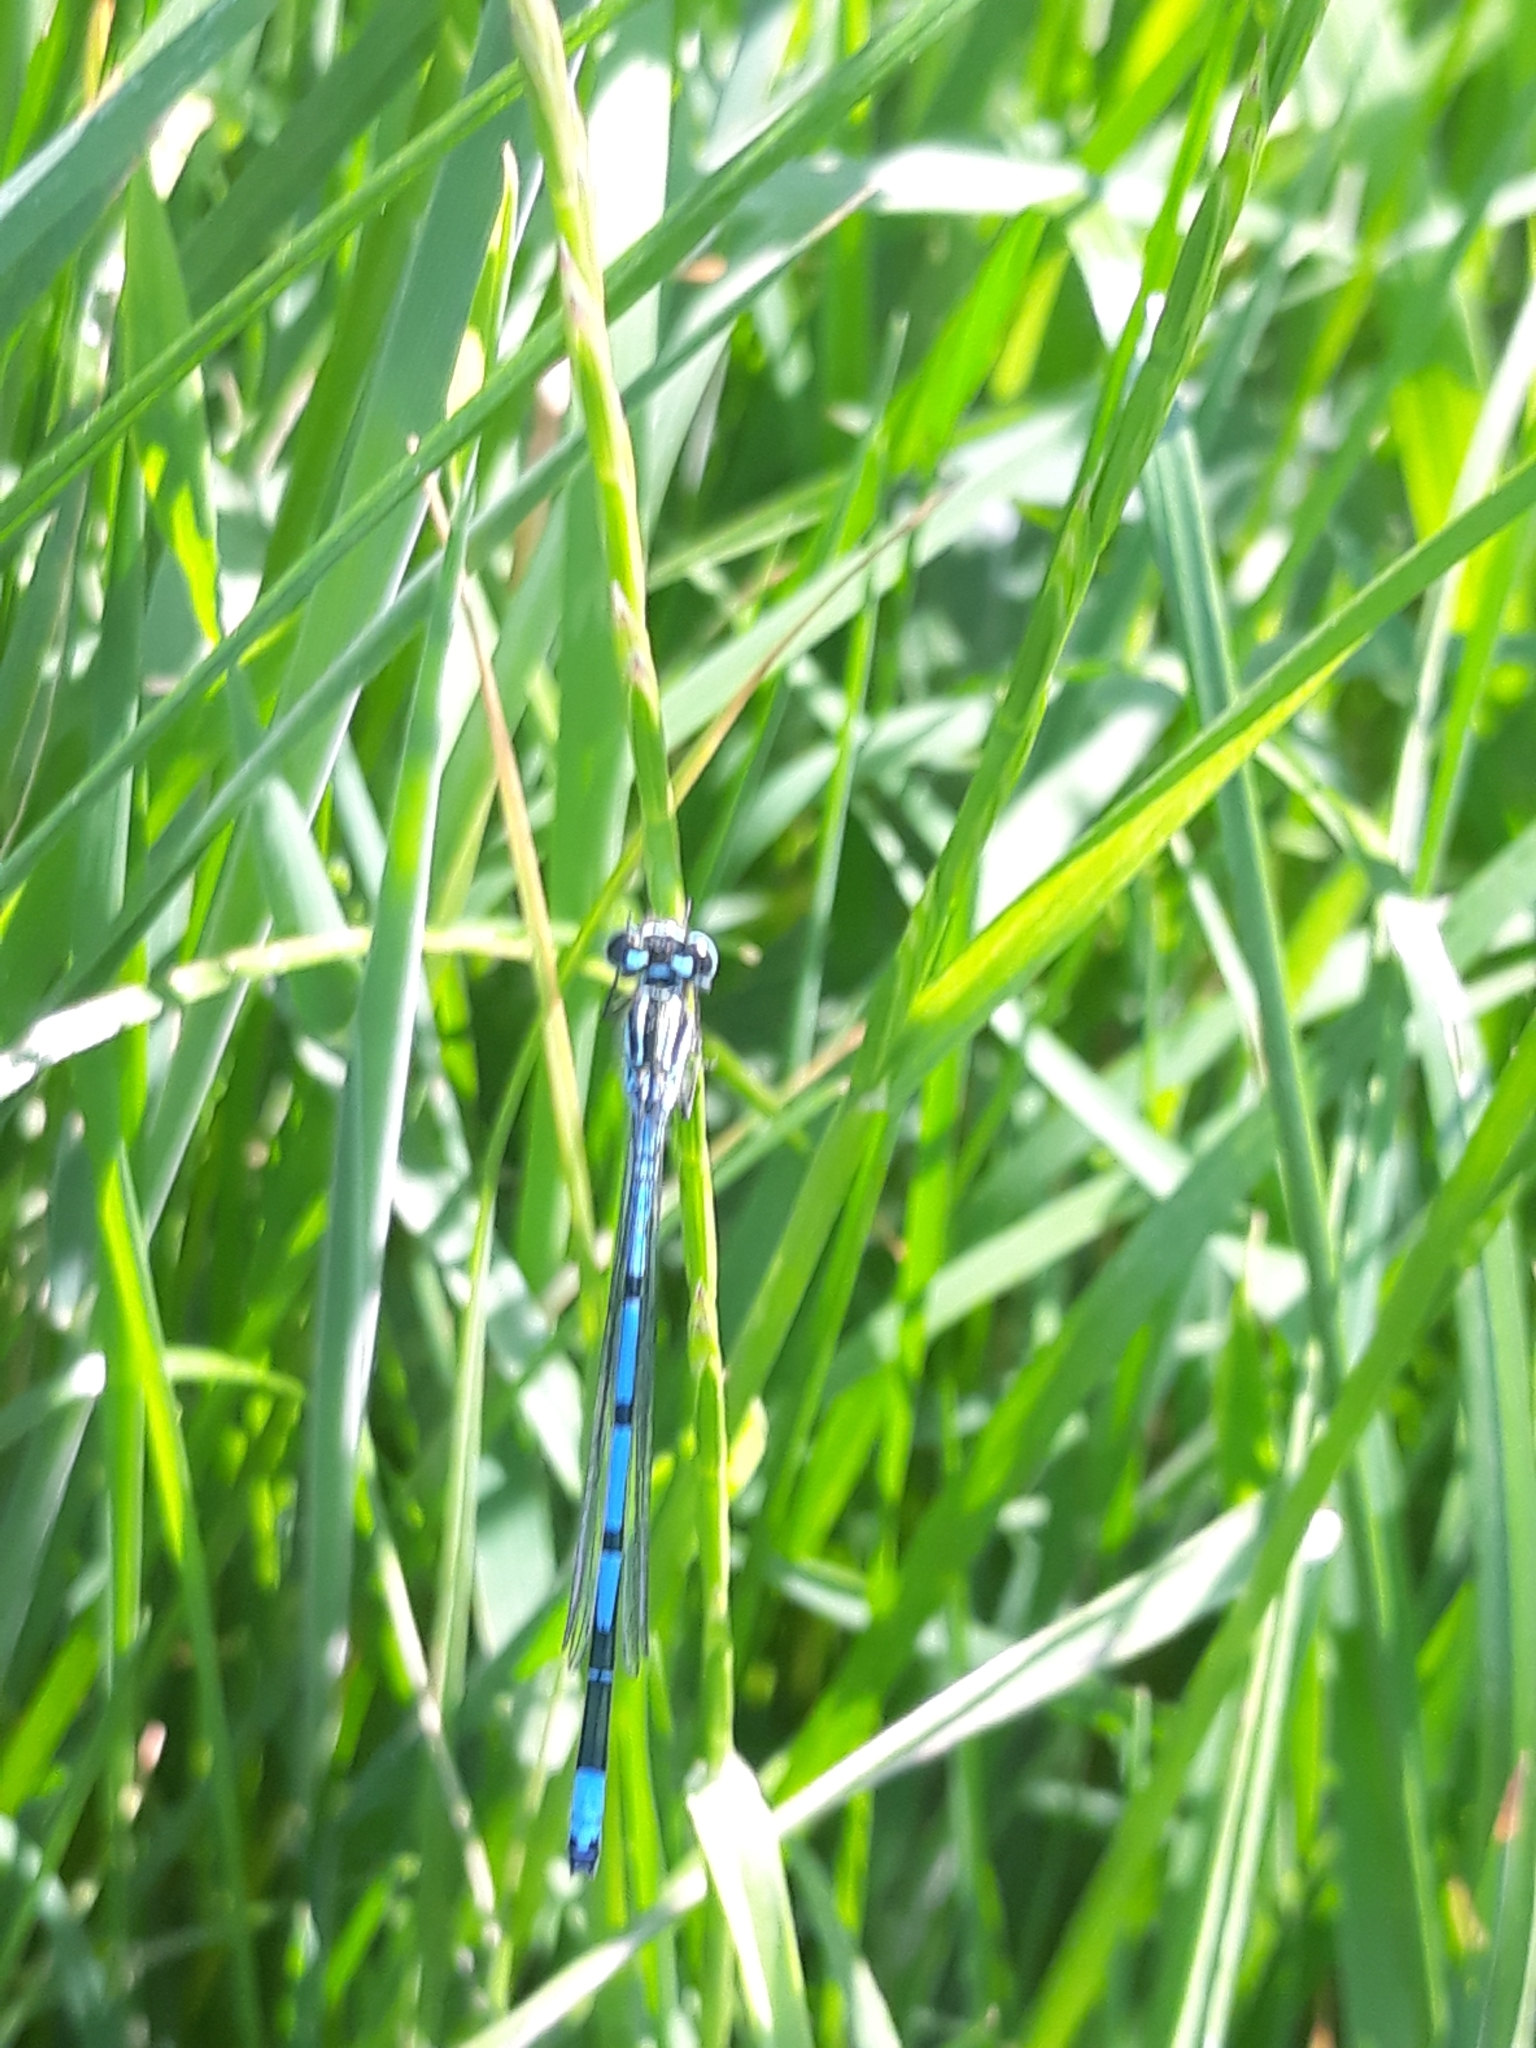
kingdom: Animalia
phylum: Arthropoda
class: Insecta
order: Odonata
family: Coenagrionidae
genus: Coenagrion
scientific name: Coenagrion puella
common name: Azure damselfly
